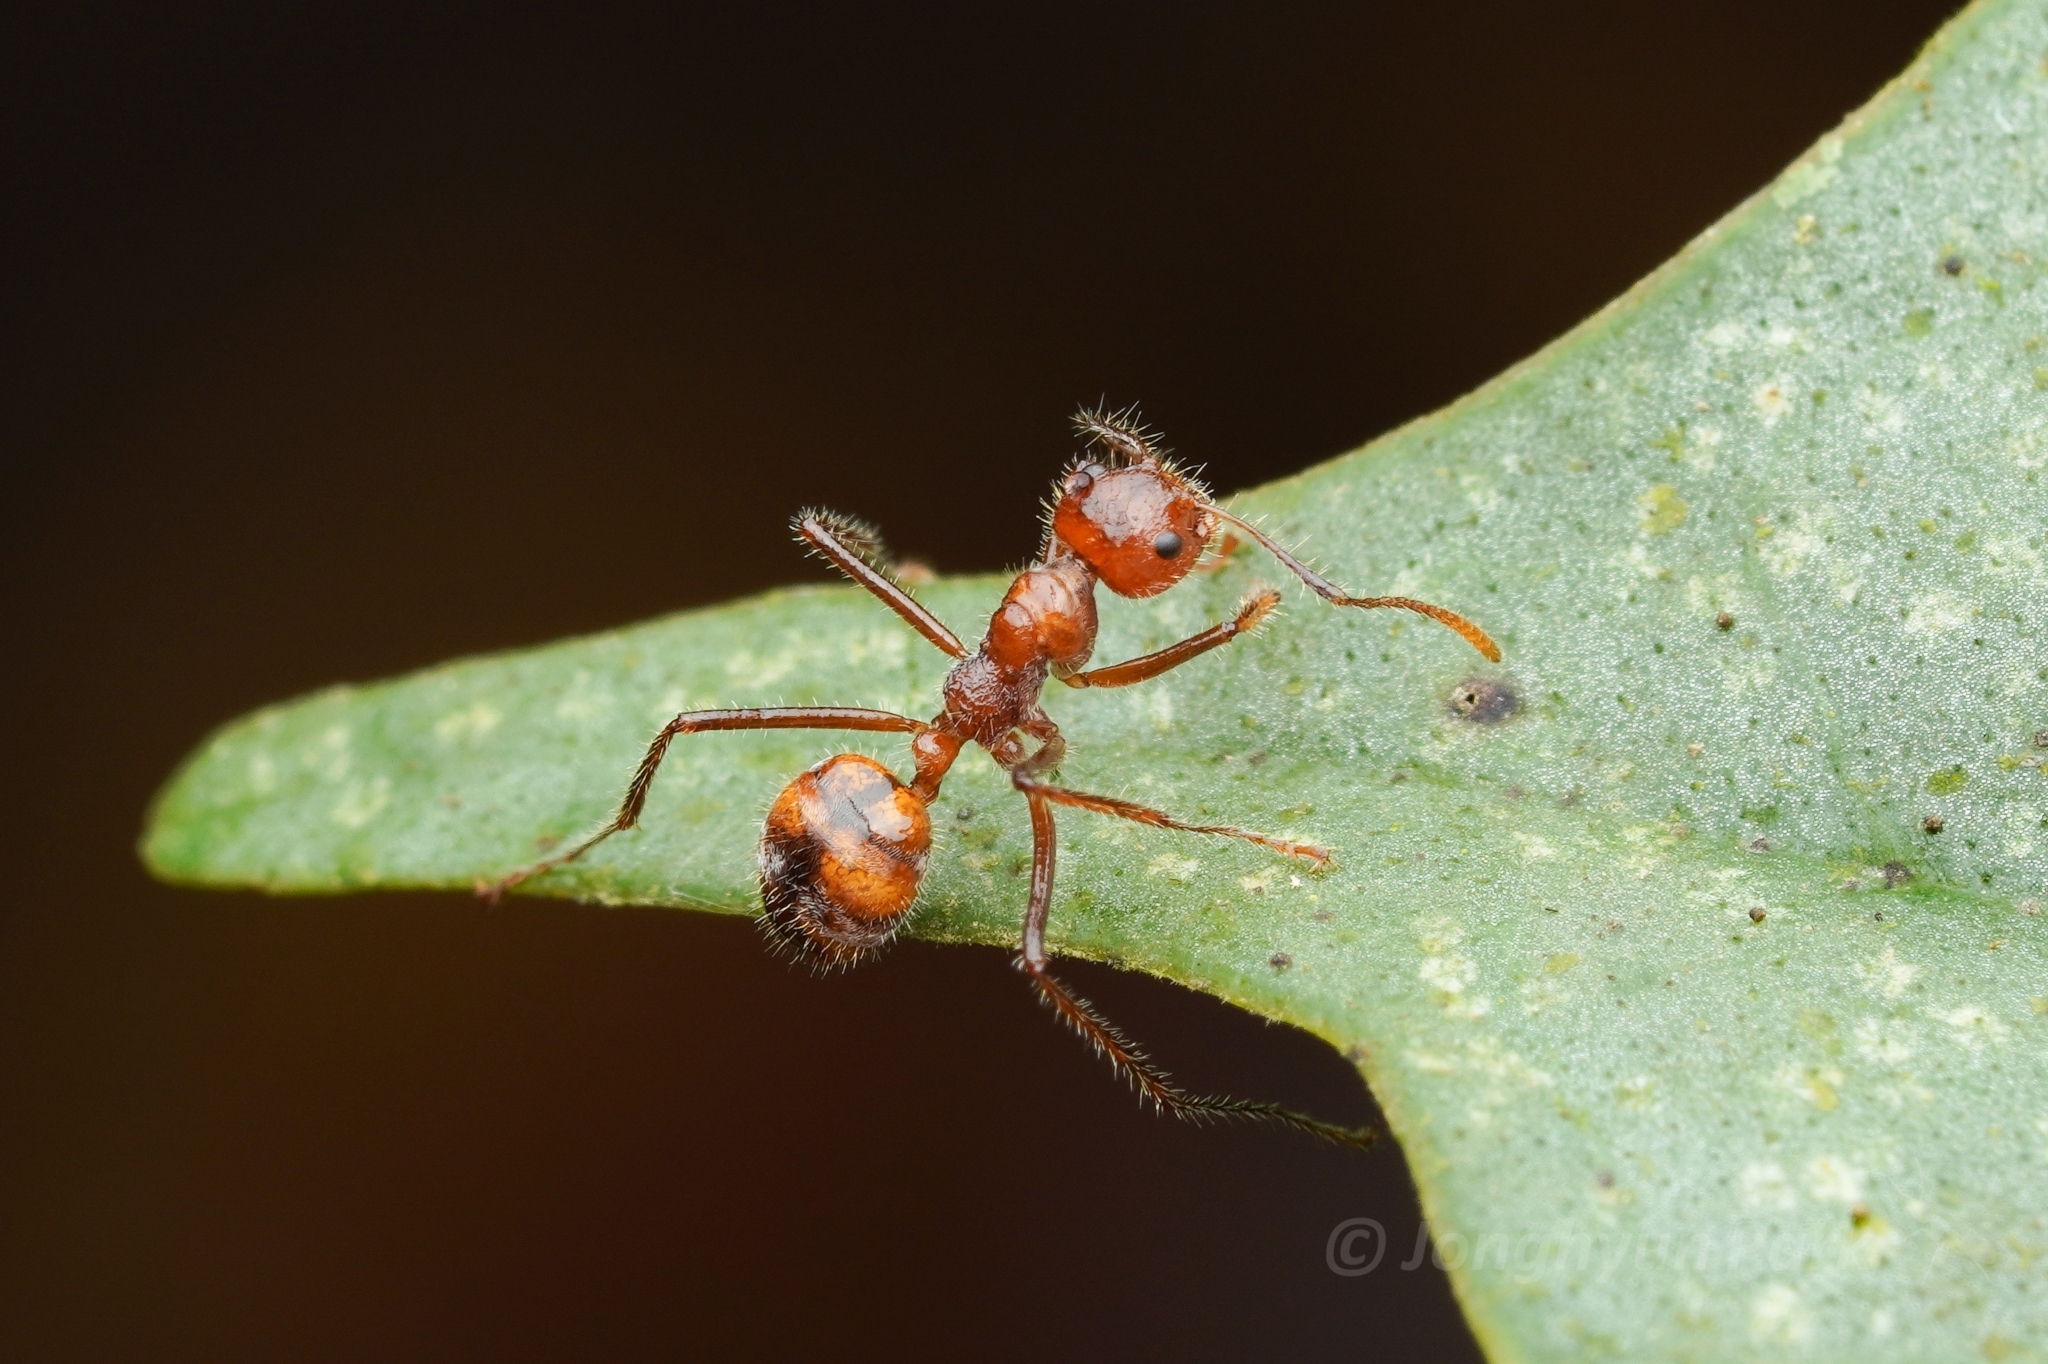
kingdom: Animalia
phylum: Arthropoda
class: Insecta
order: Hymenoptera
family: Formicidae
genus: Dolichoderus
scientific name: Dolichoderus patens
